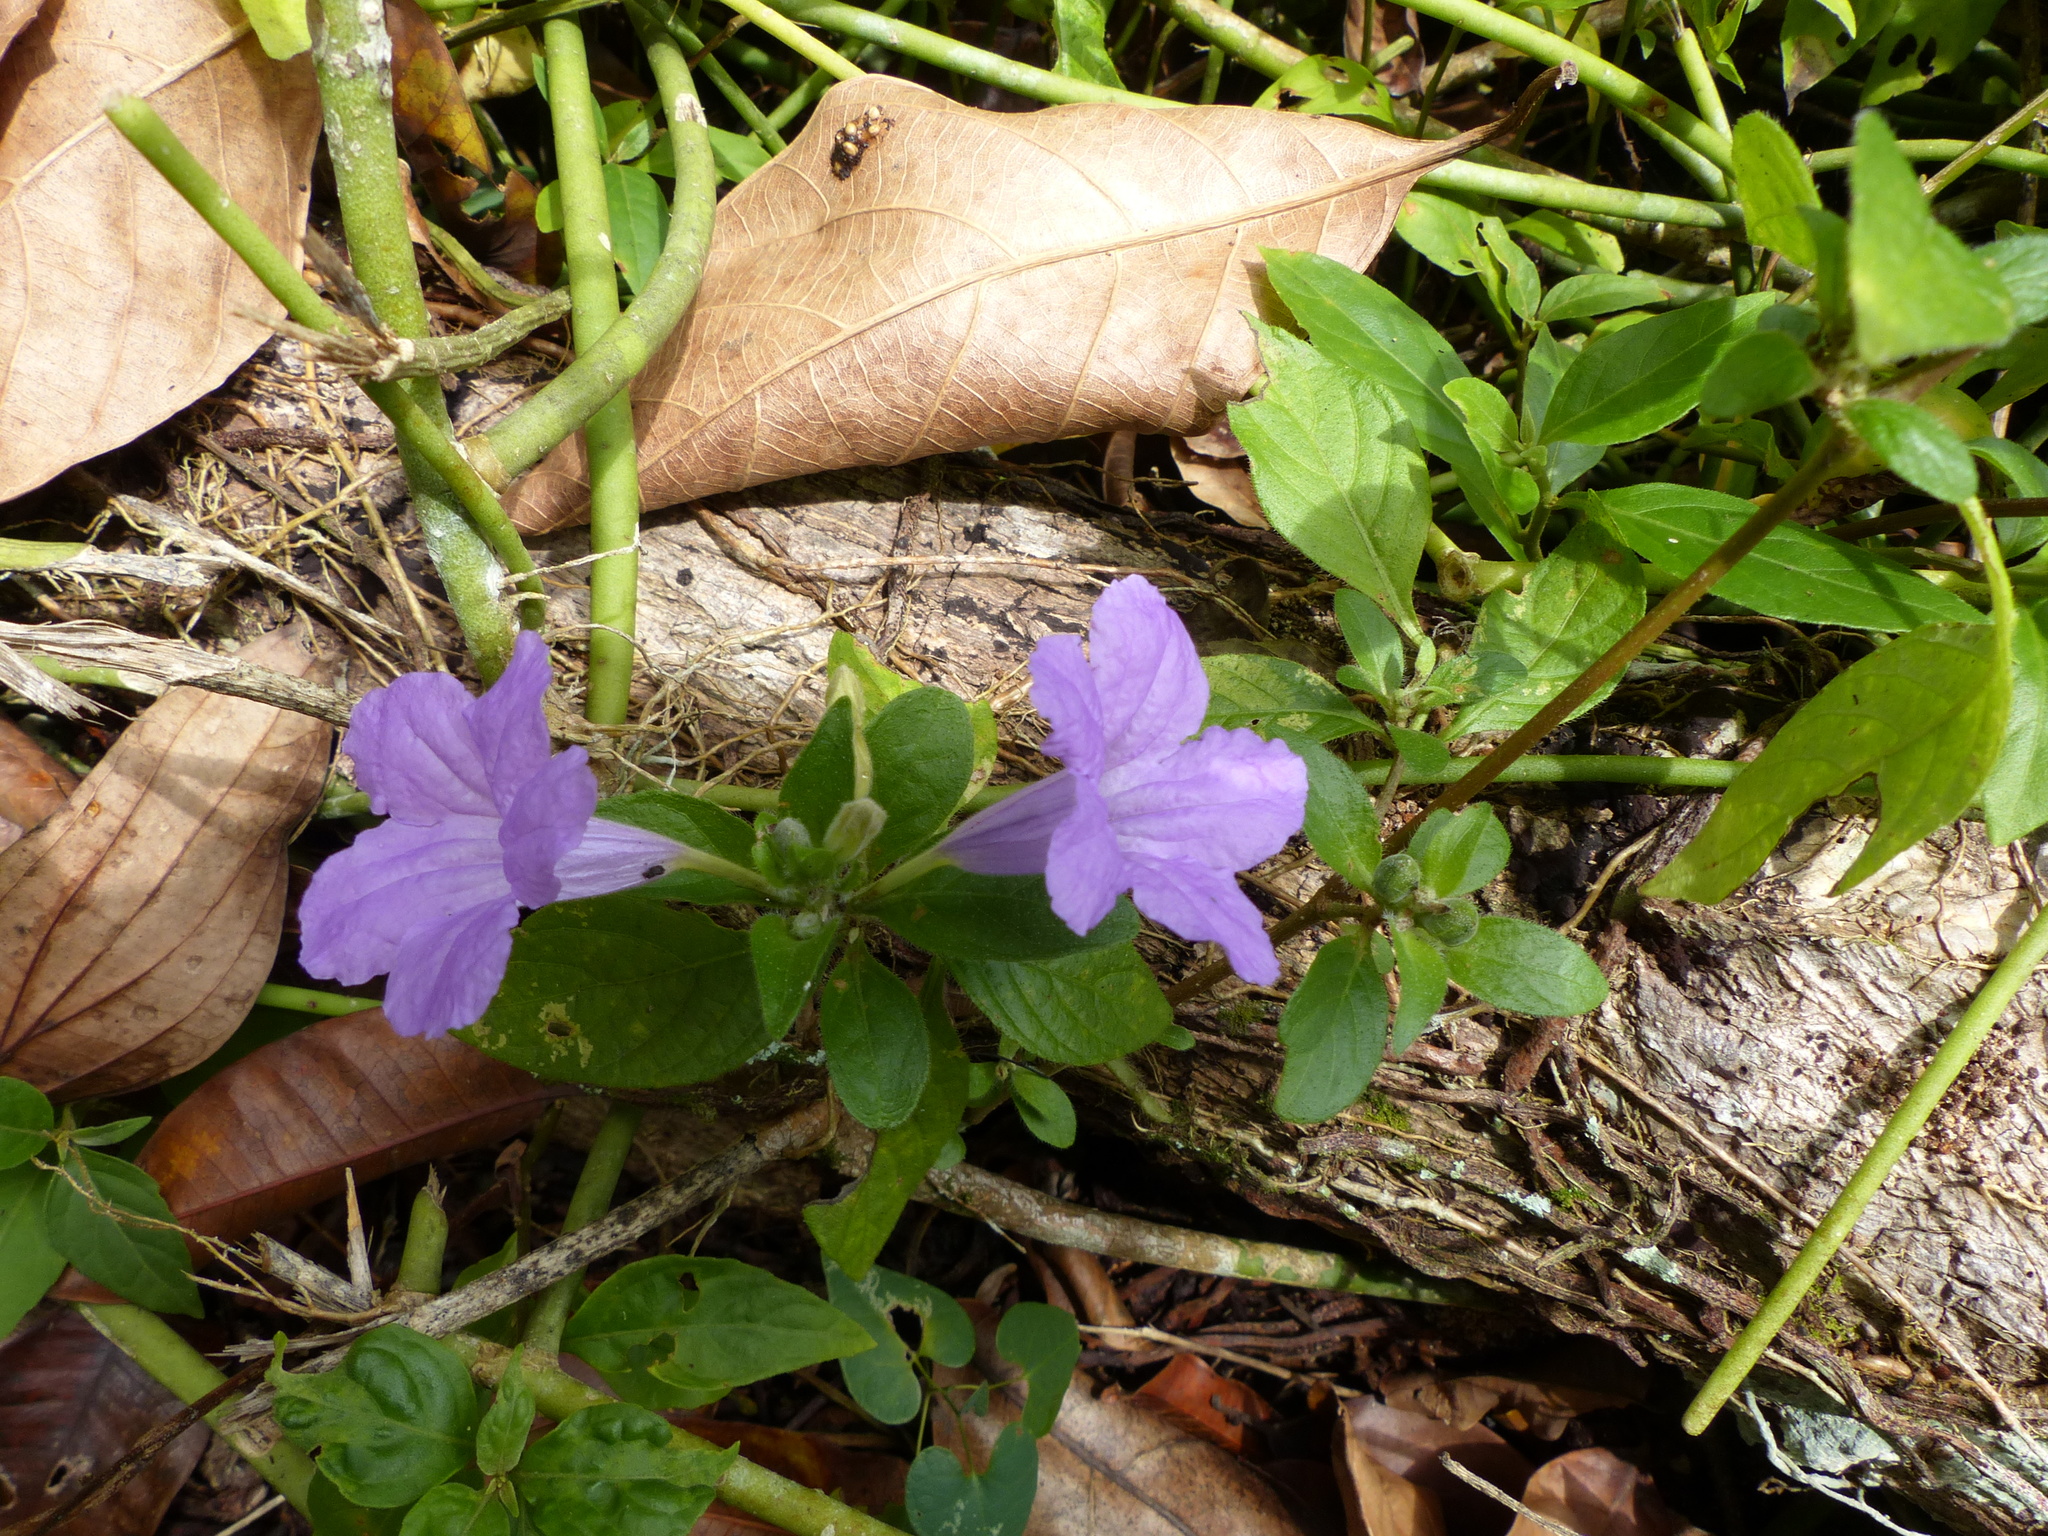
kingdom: Plantae
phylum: Tracheophyta
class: Magnoliopsida
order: Lamiales
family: Acanthaceae
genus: Ruellia
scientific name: Ruellia bahiensis
